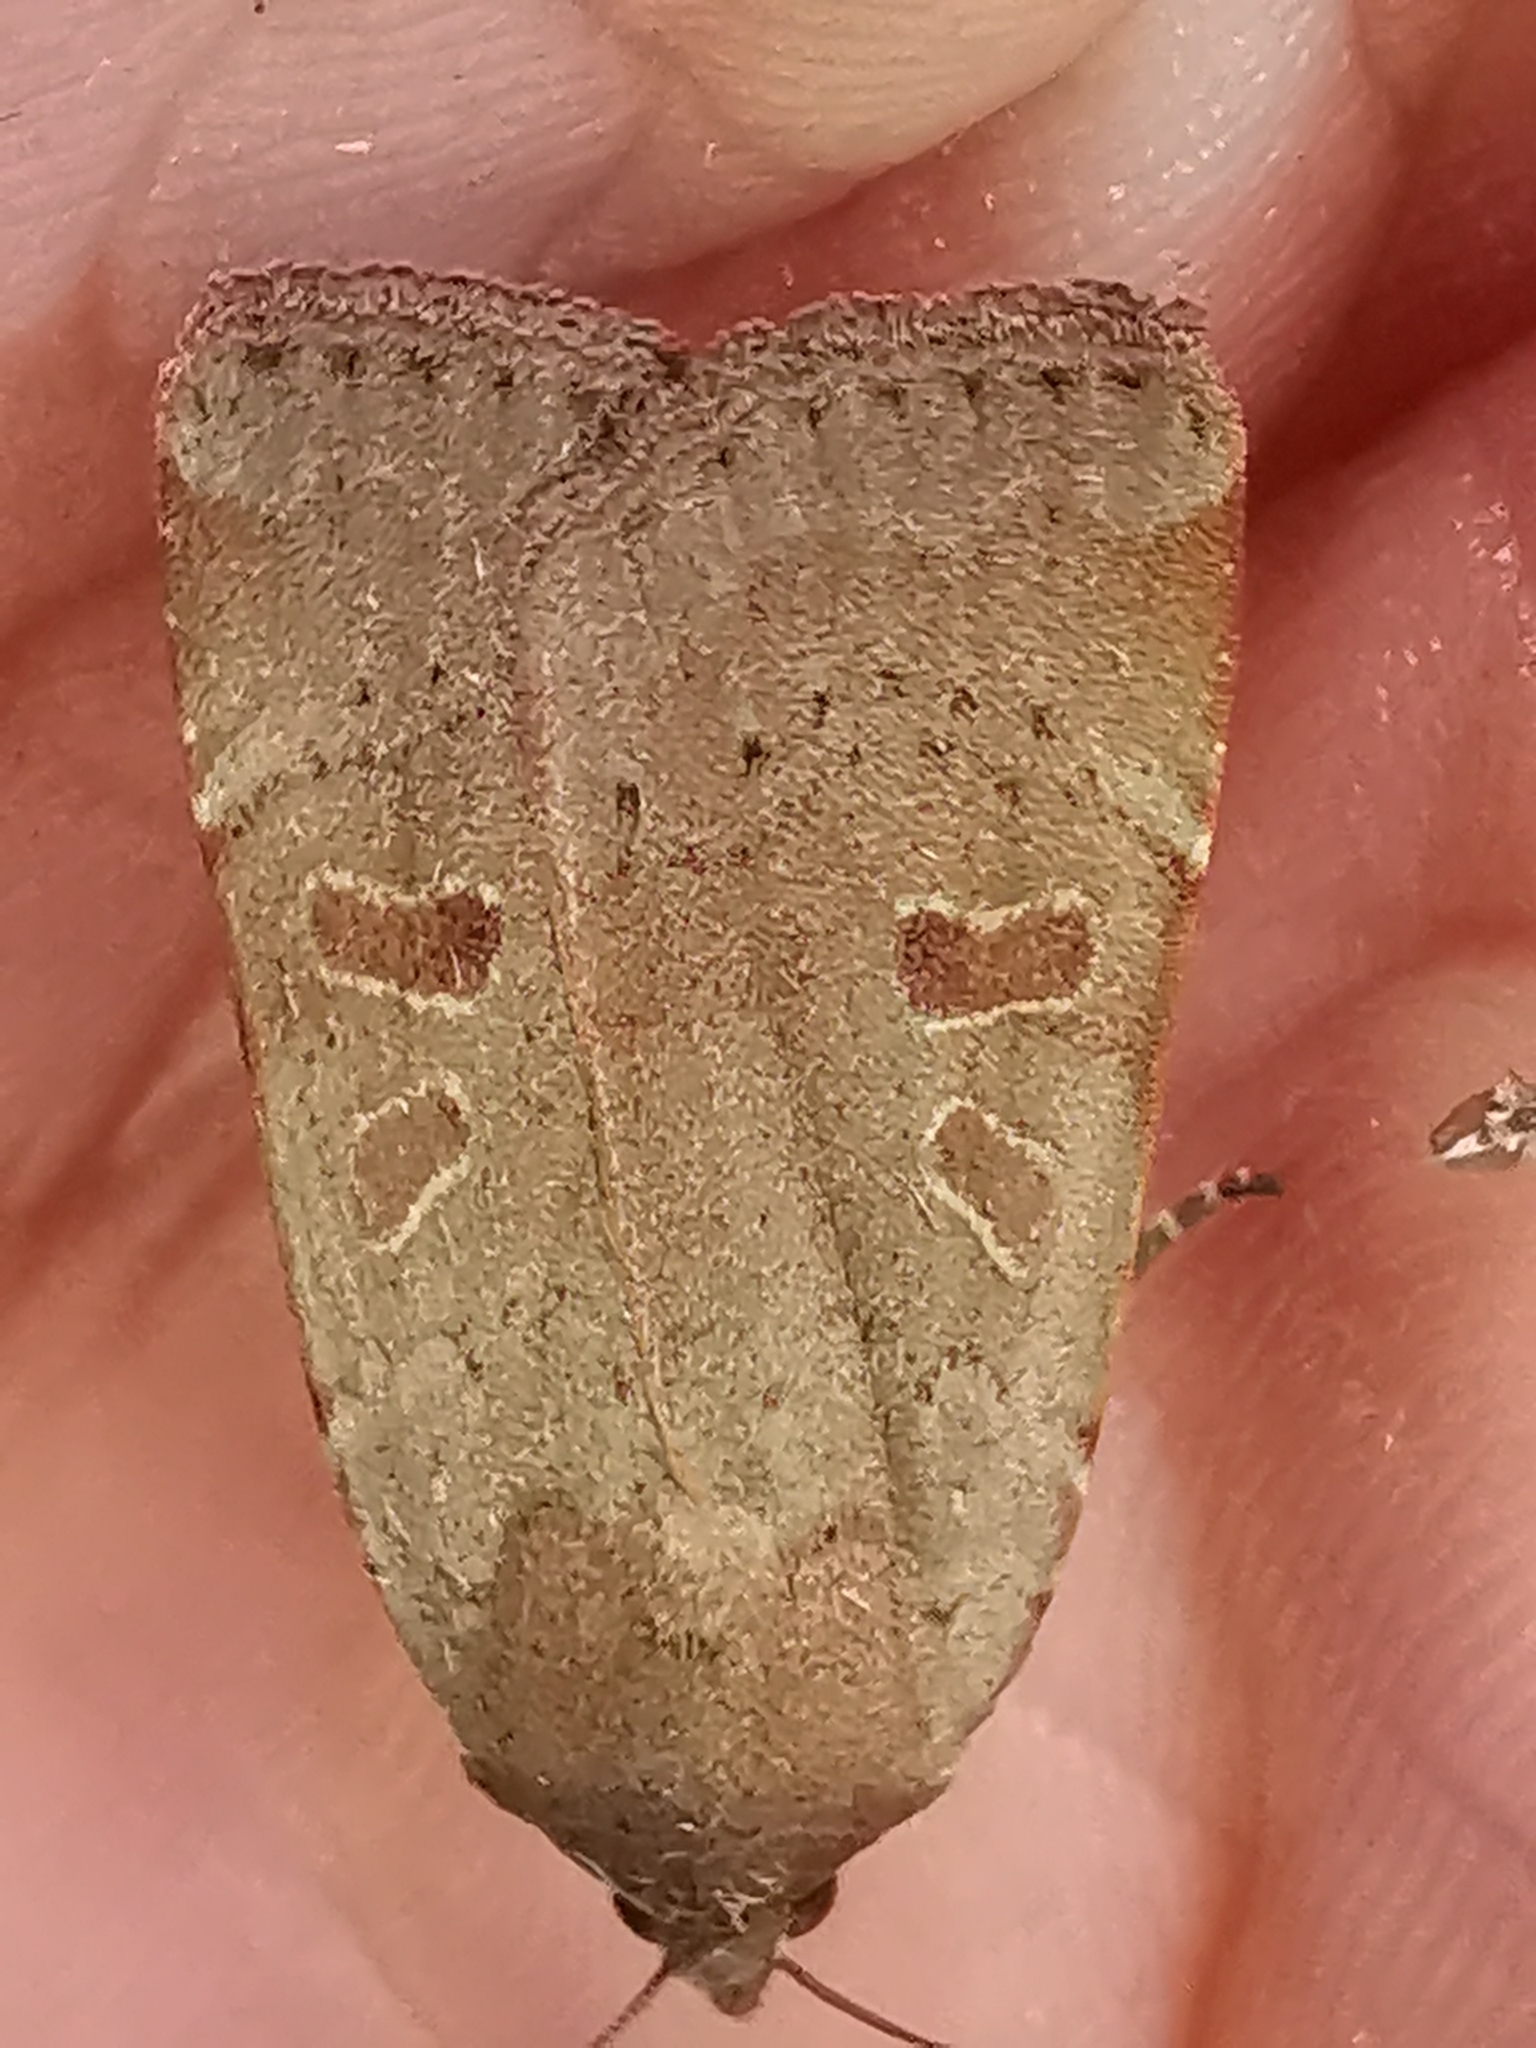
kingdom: Animalia
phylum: Arthropoda
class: Insecta
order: Lepidoptera
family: Noctuidae
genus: Noctua
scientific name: Noctua comes
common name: Lesser yellow underwing
